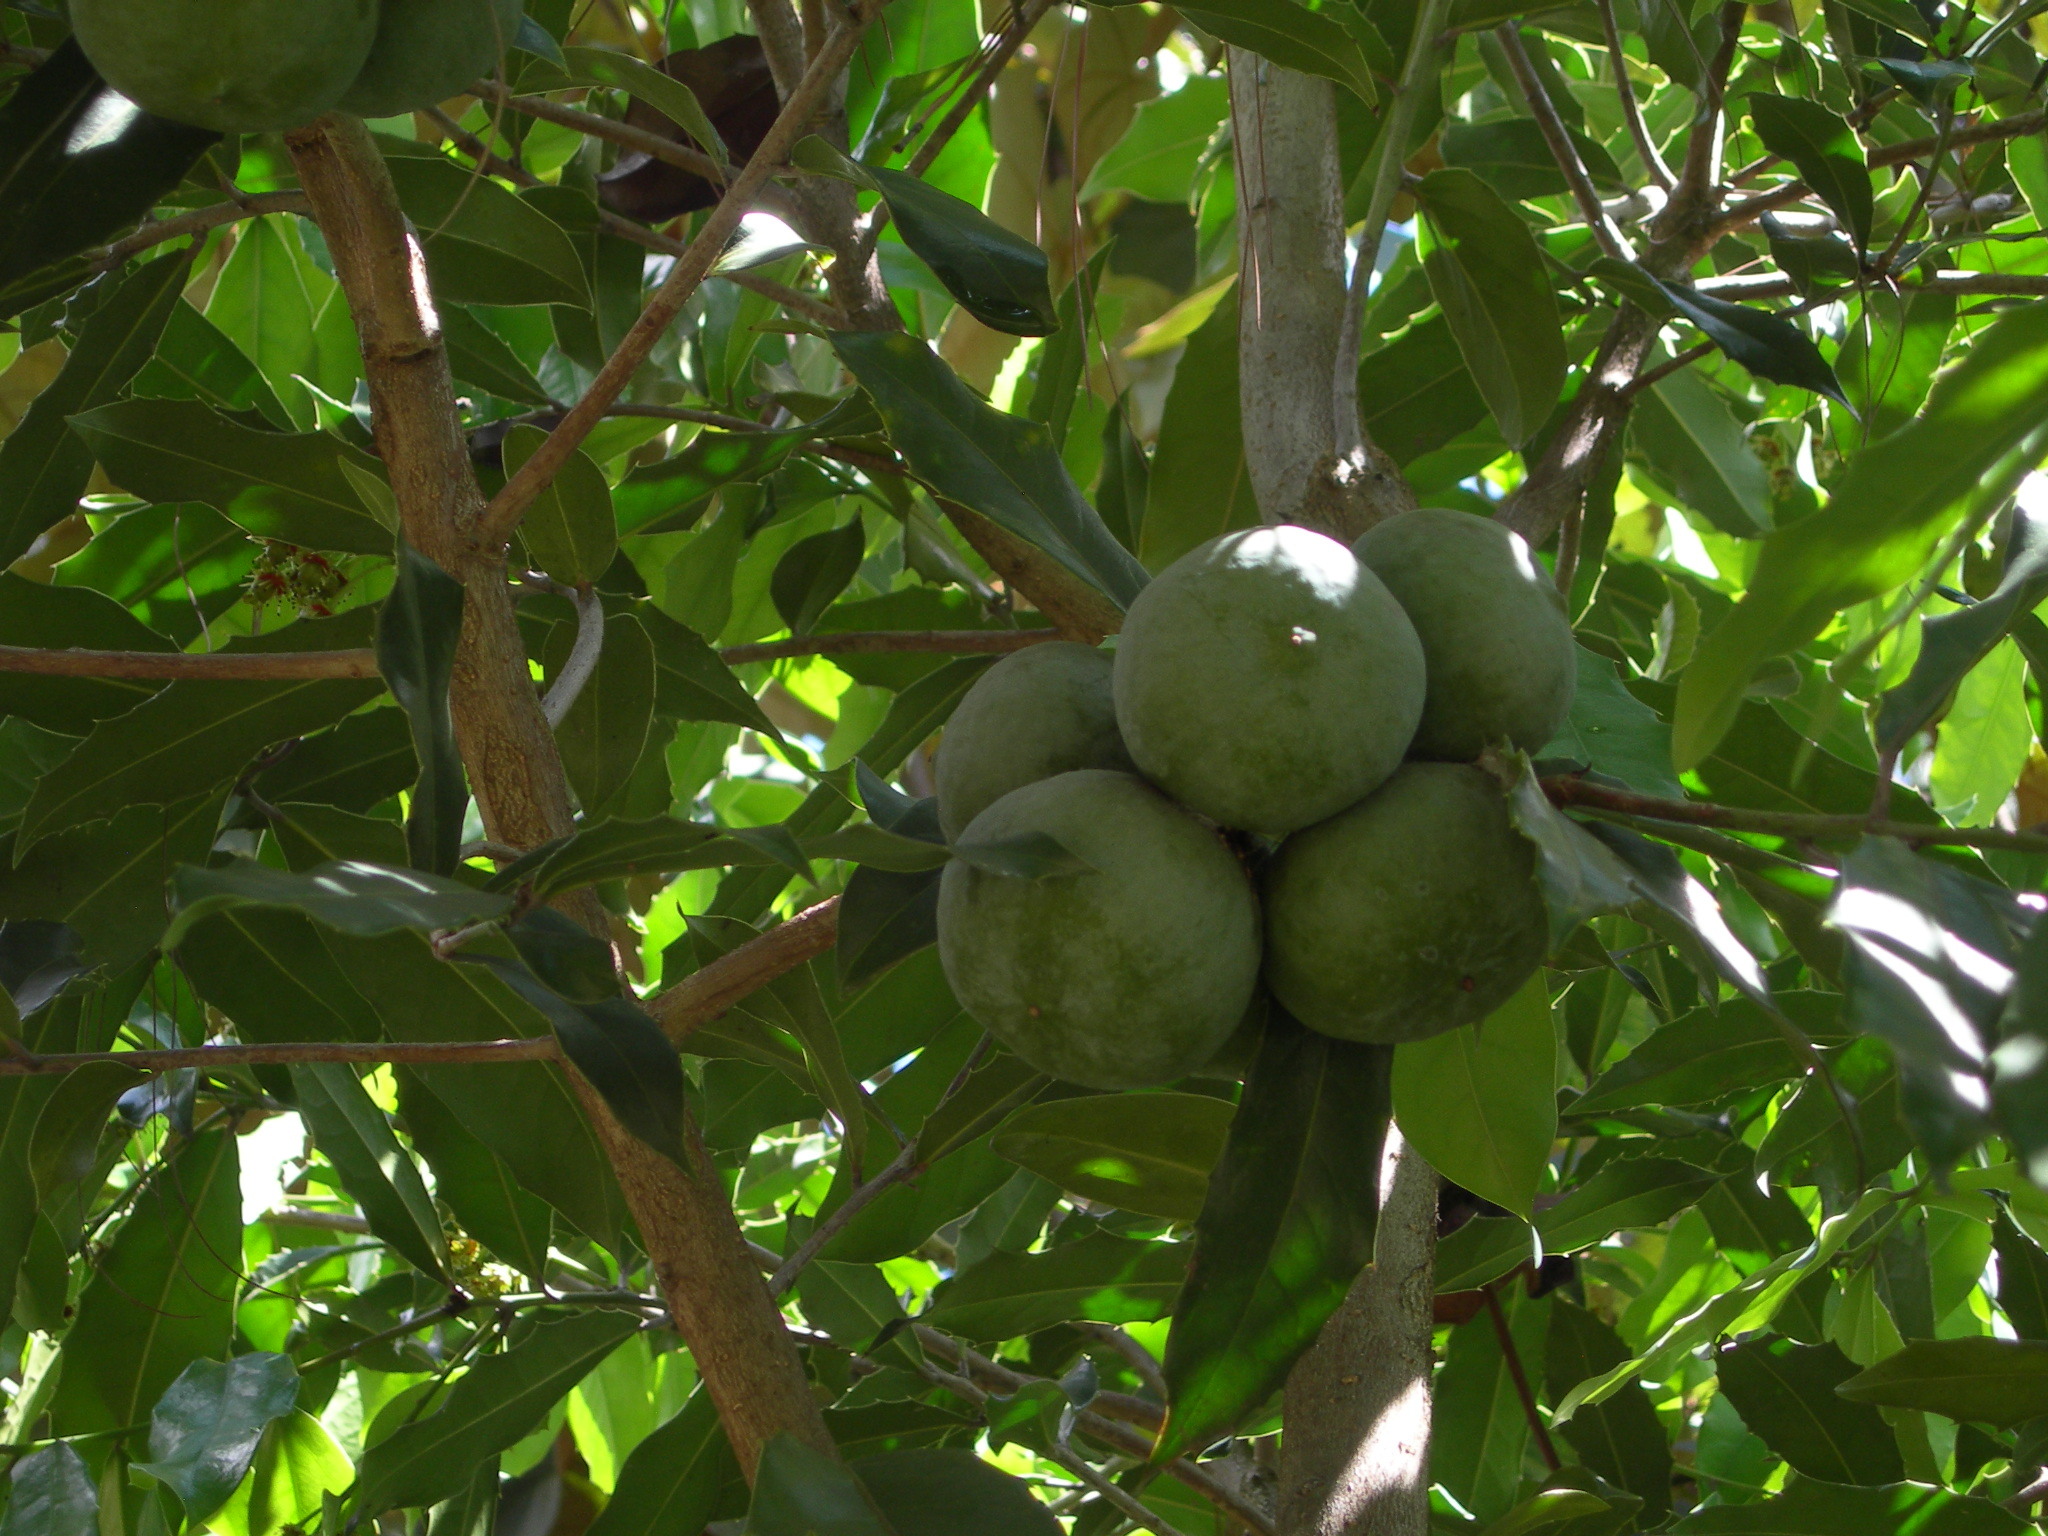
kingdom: Plantae
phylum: Tracheophyta
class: Magnoliopsida
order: Malpighiales
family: Salicaceae
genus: Olmediella
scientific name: Olmediella betschleriana
